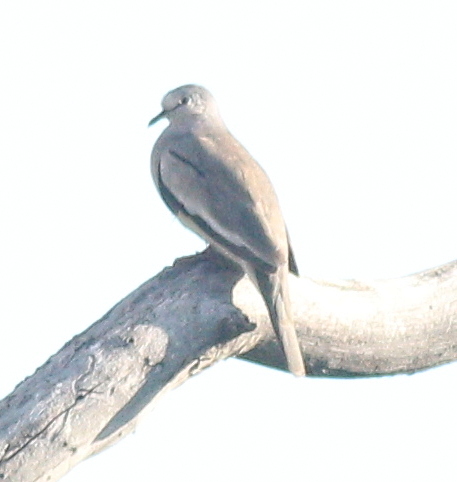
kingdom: Animalia
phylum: Chordata
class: Aves
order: Columbiformes
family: Columbidae
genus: Columbina
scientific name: Columbina picui
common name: Picui ground dove
